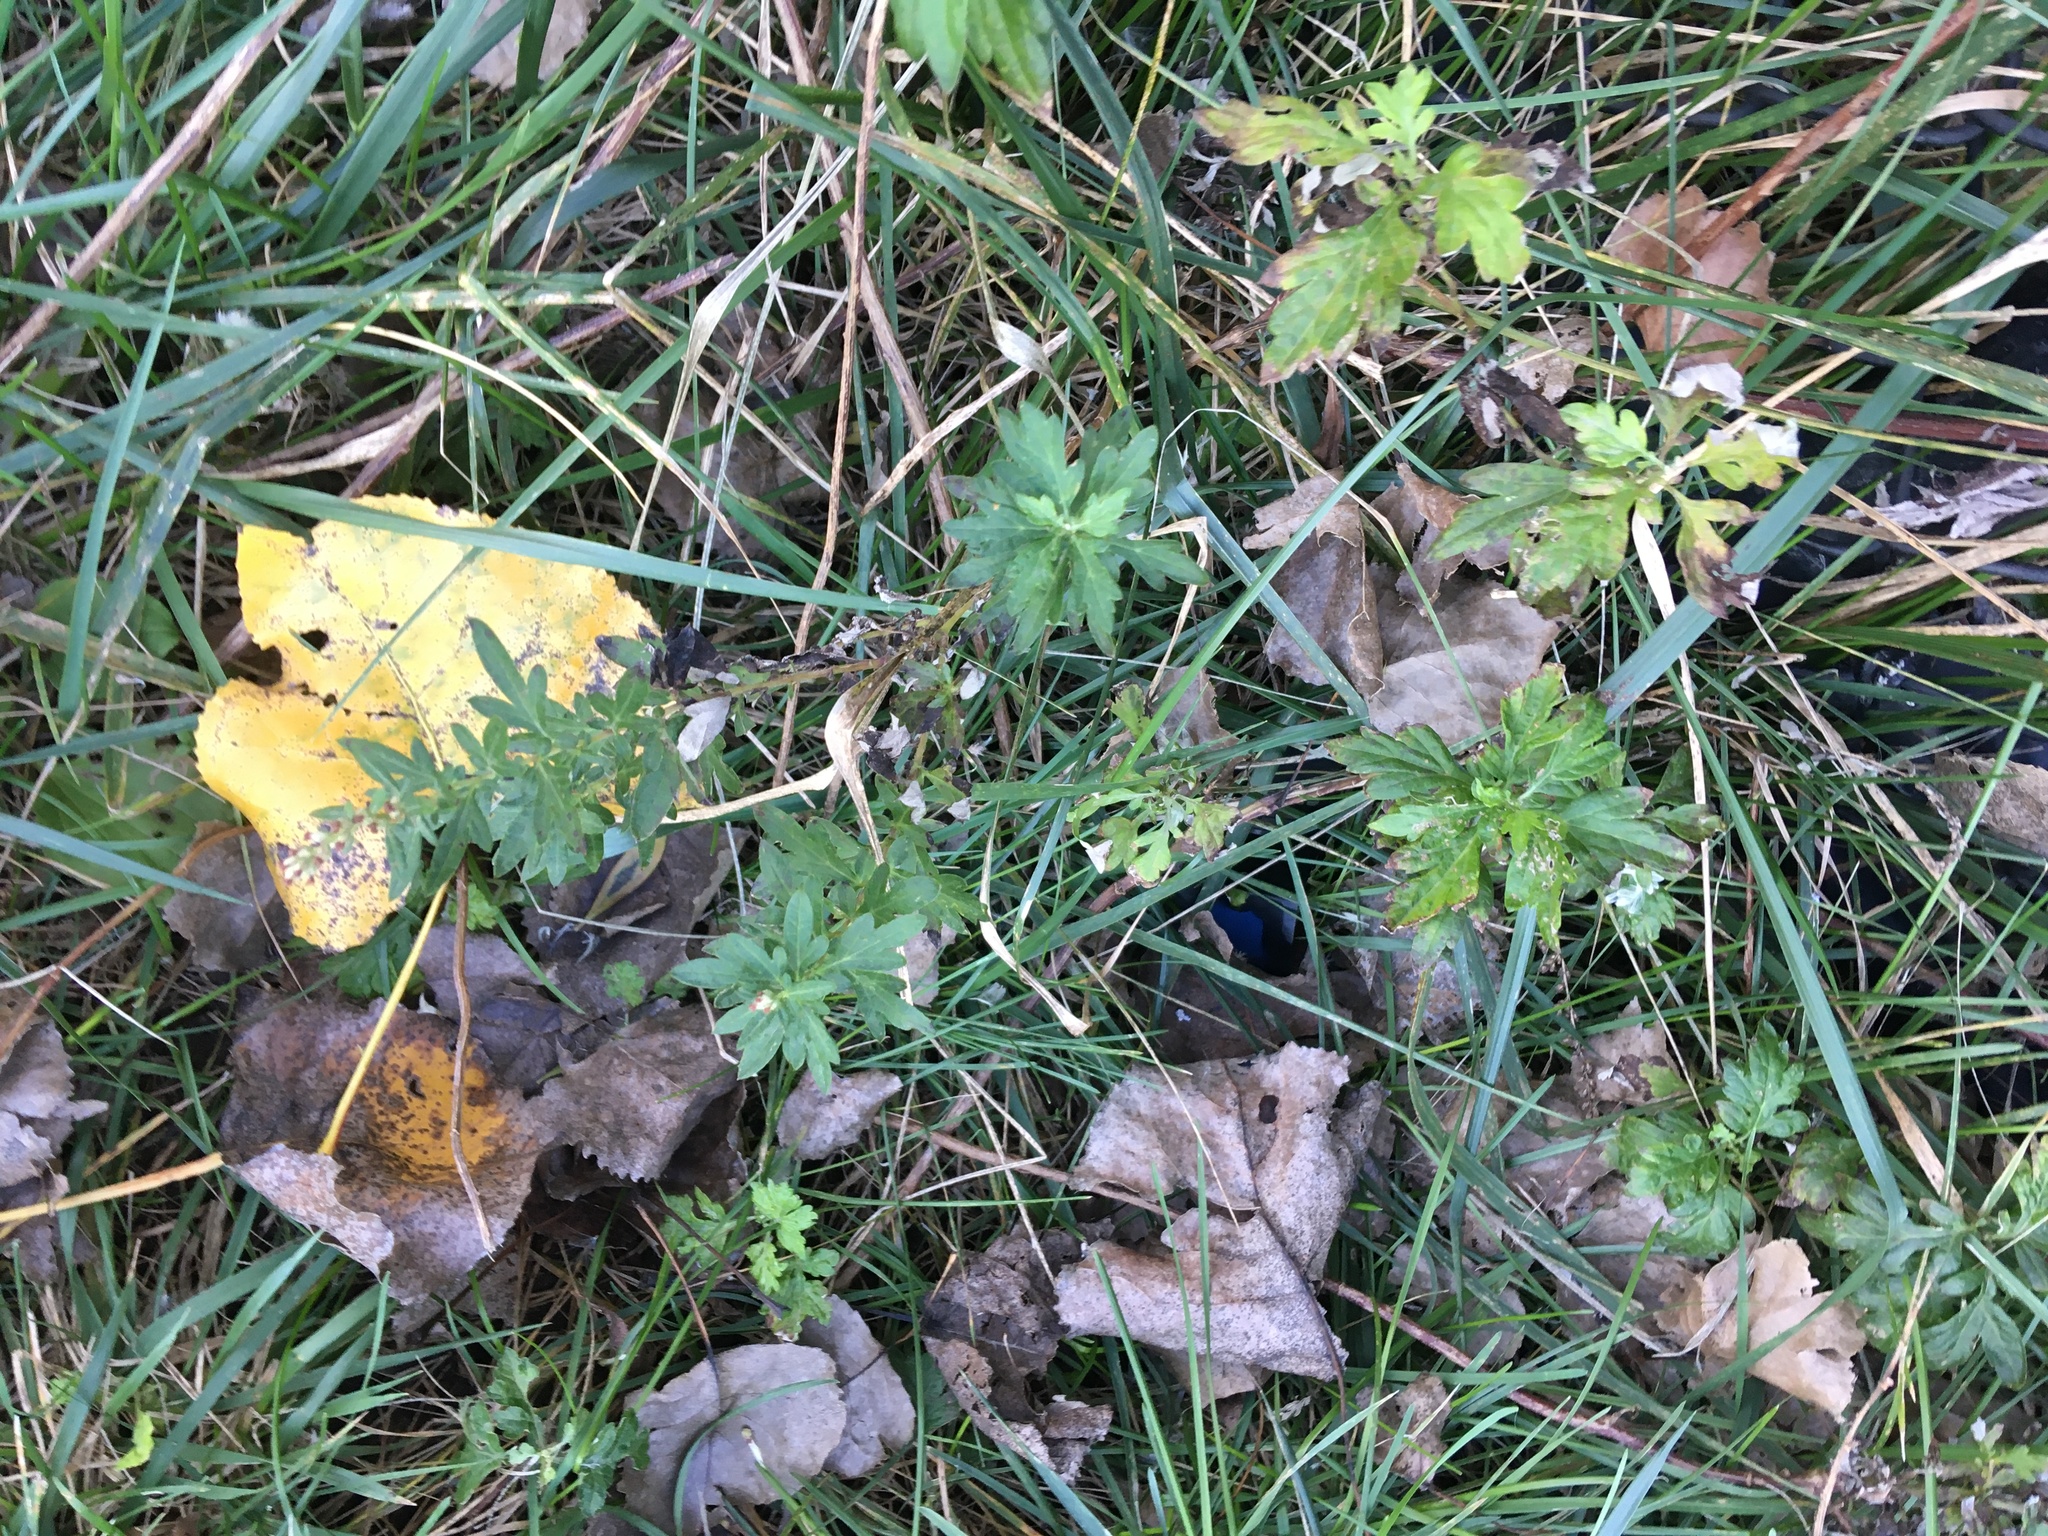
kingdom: Plantae
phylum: Tracheophyta
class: Magnoliopsida
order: Asterales
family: Asteraceae
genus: Artemisia
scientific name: Artemisia vulgaris
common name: Mugwort
